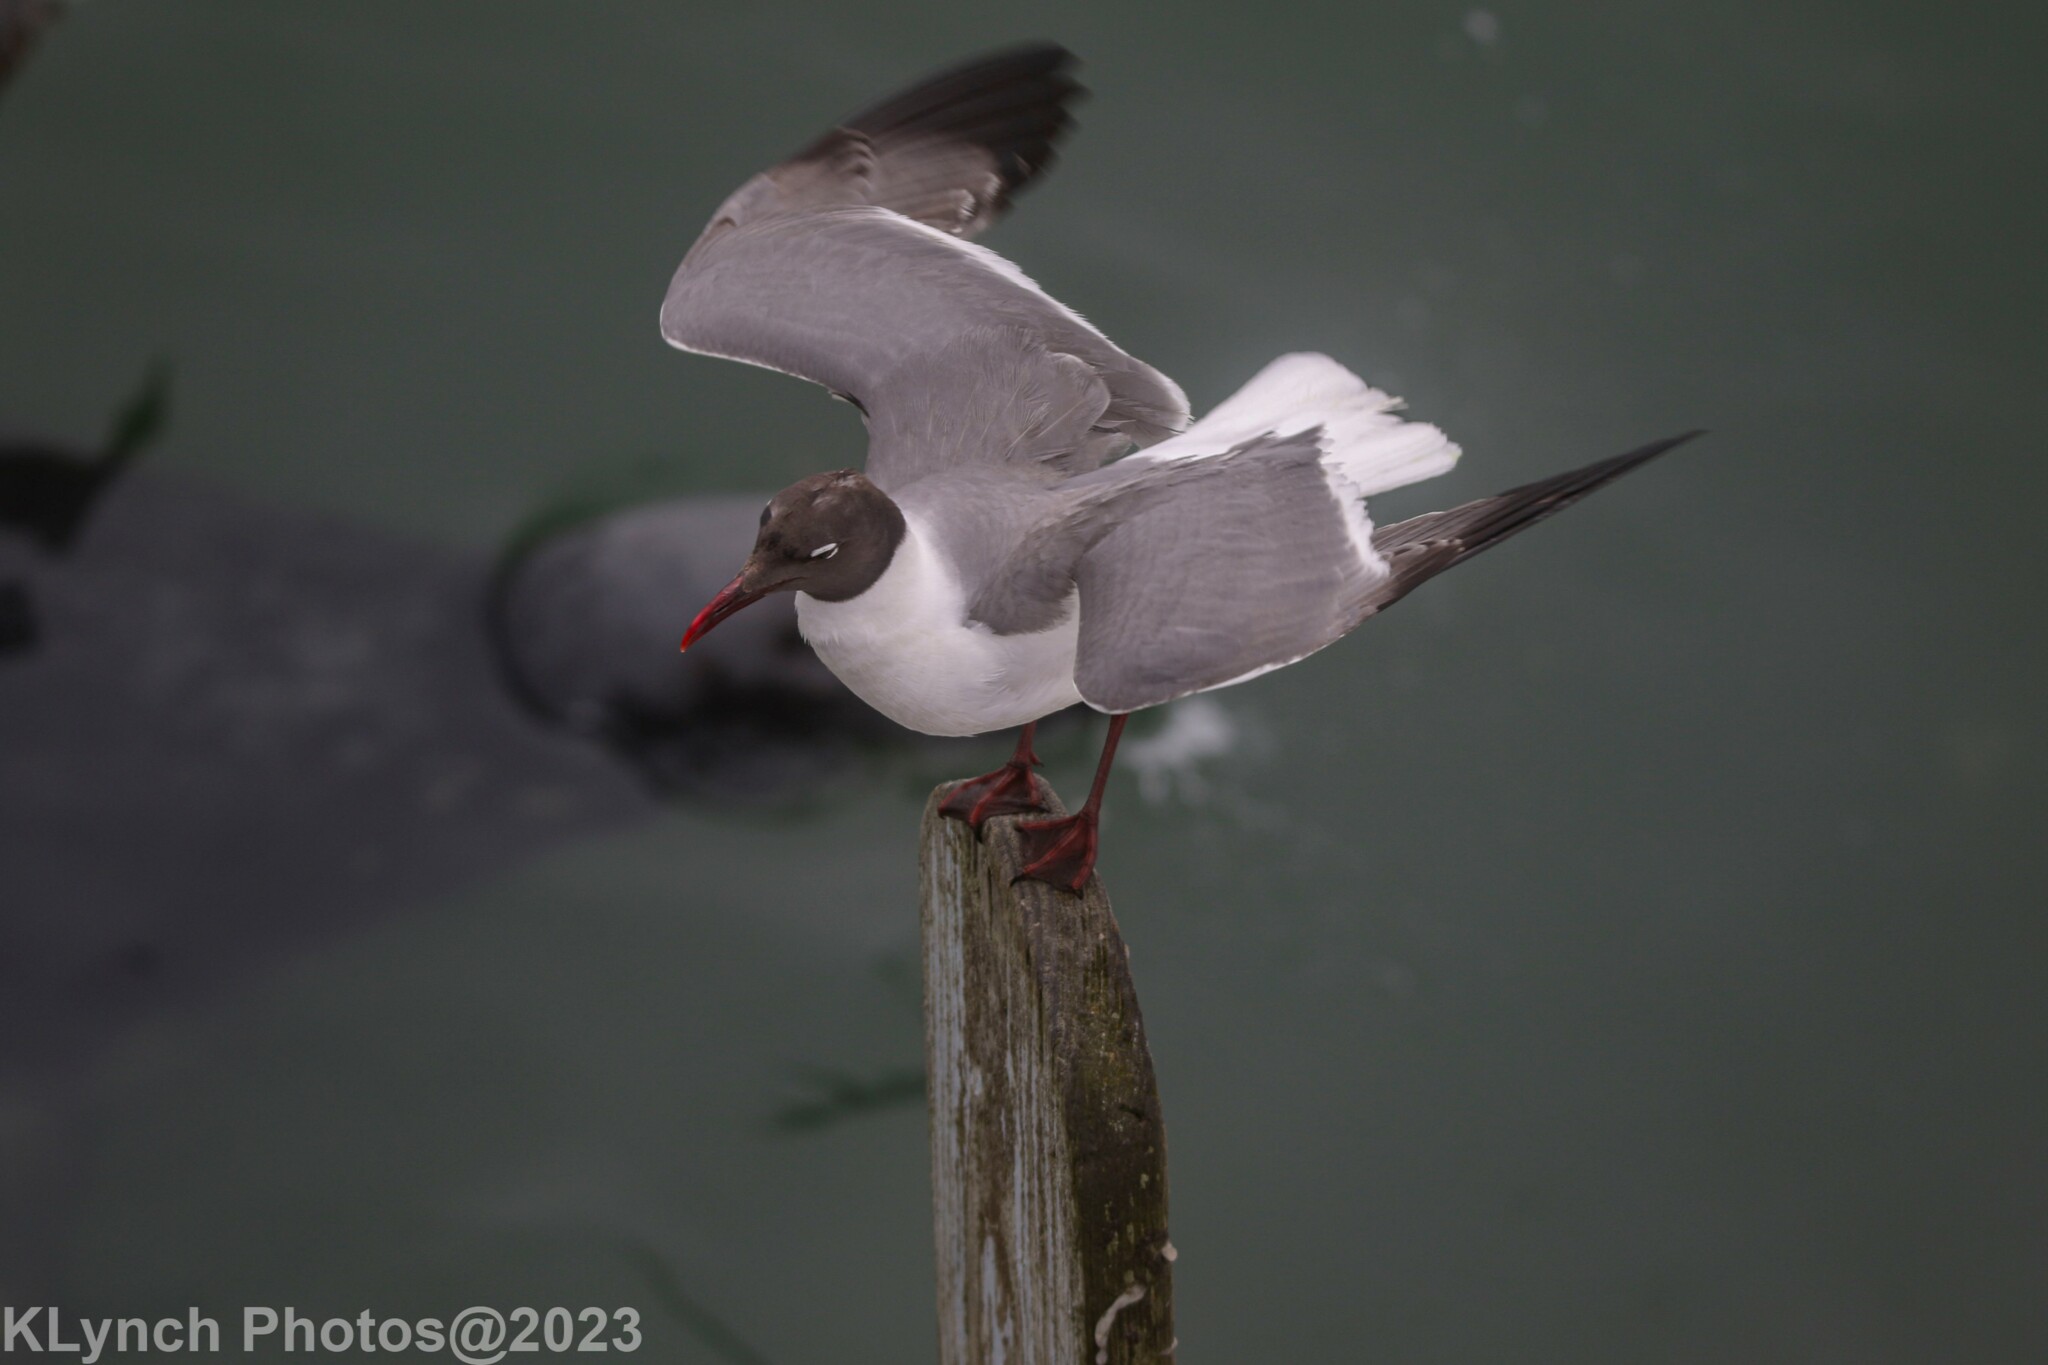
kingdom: Animalia
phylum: Chordata
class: Aves
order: Charadriiformes
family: Laridae
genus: Leucophaeus
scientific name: Leucophaeus atricilla
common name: Laughing gull
